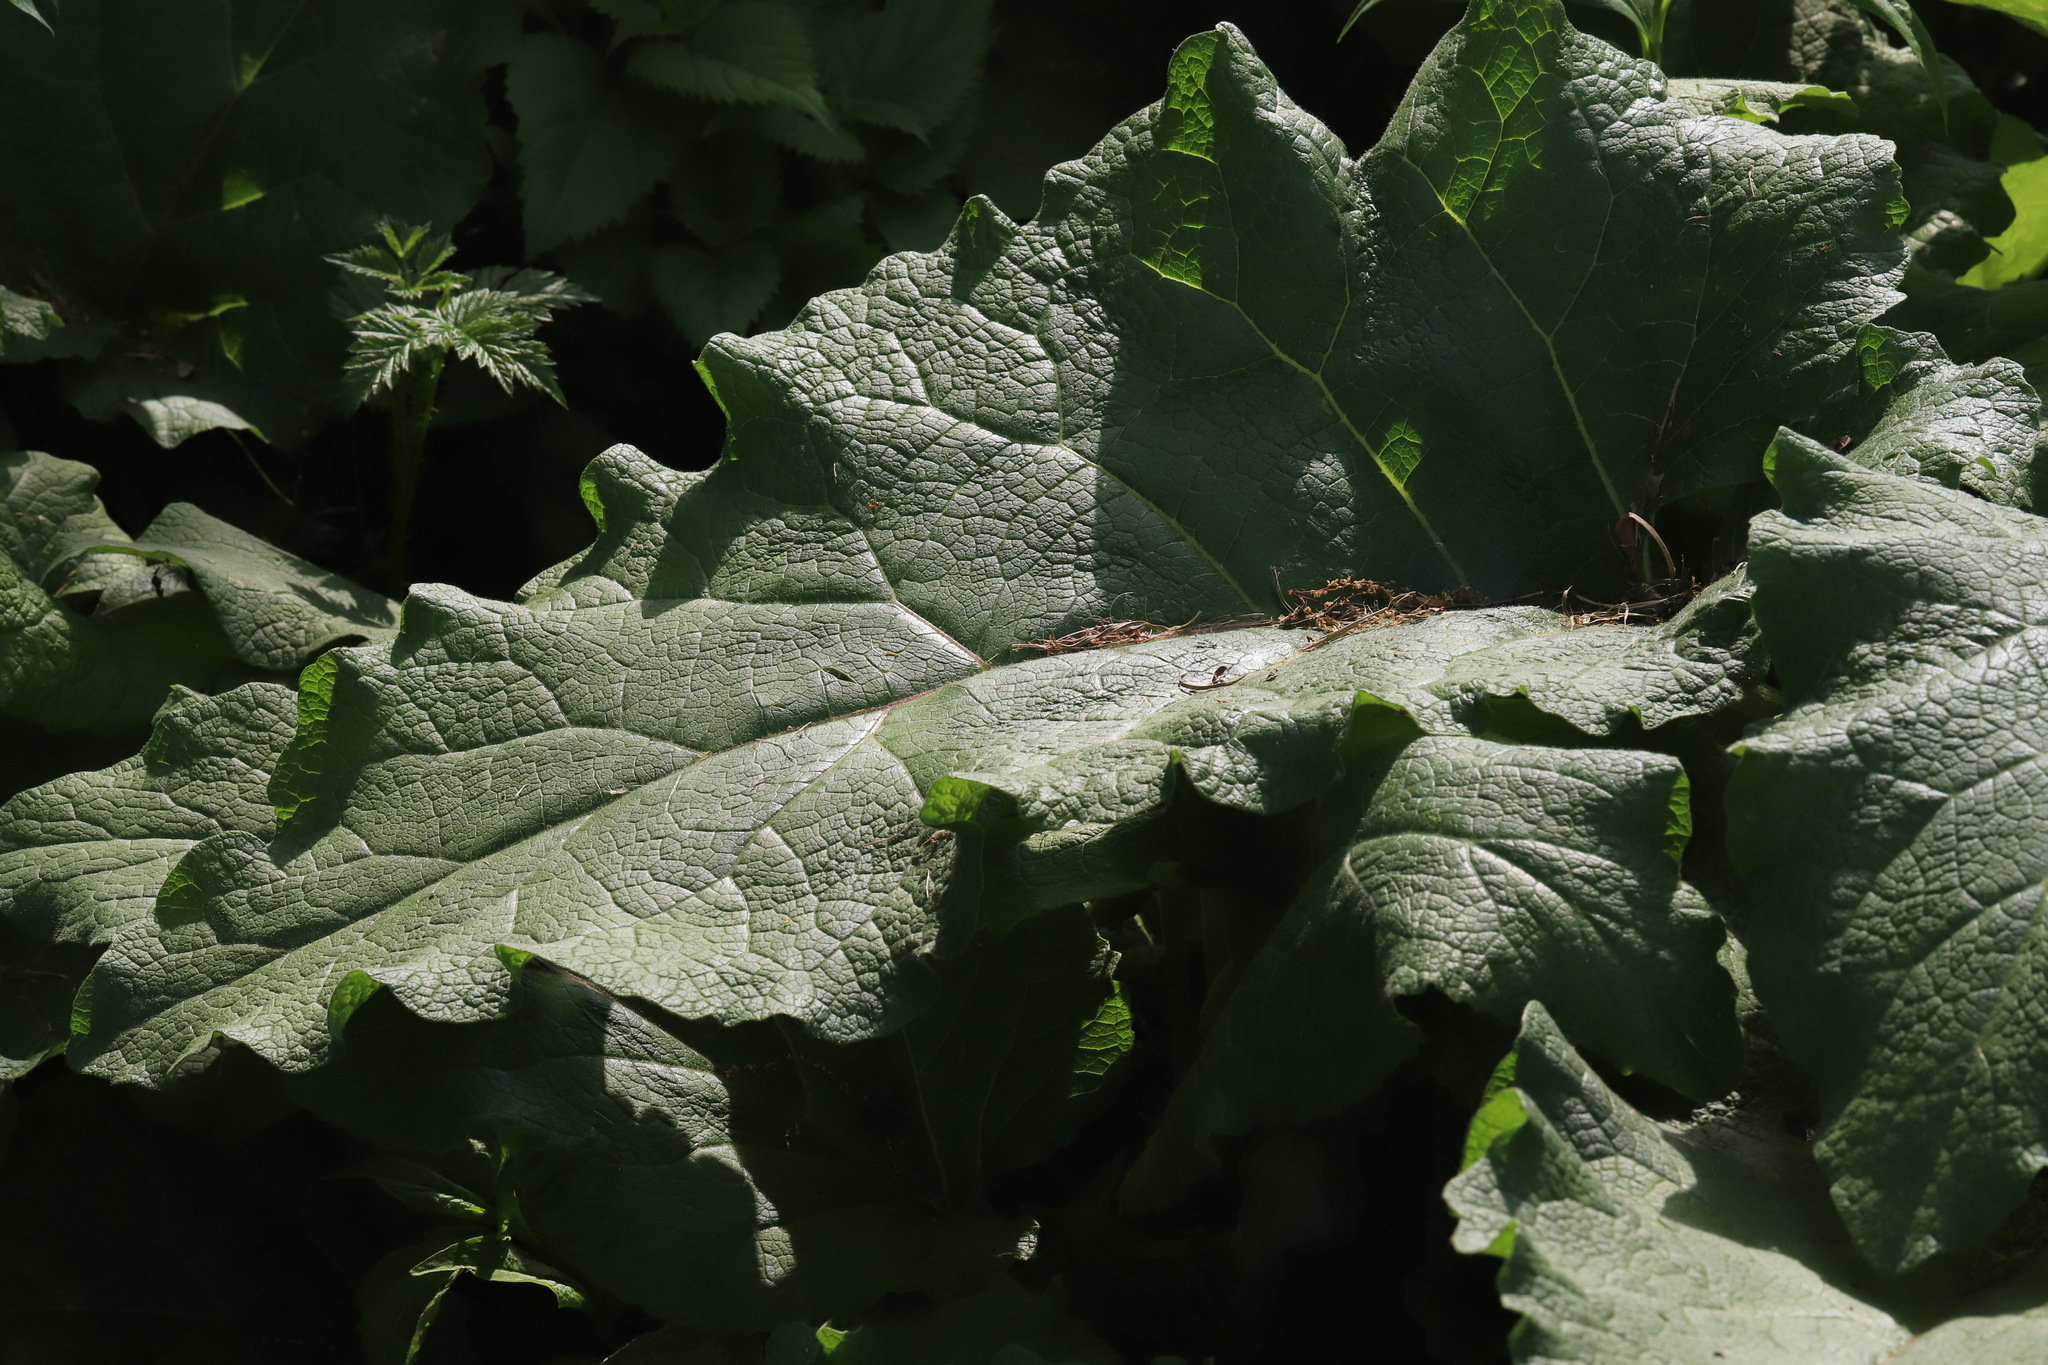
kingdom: Plantae
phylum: Tracheophyta
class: Magnoliopsida
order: Asterales
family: Asteraceae
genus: Arctium
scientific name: Arctium
